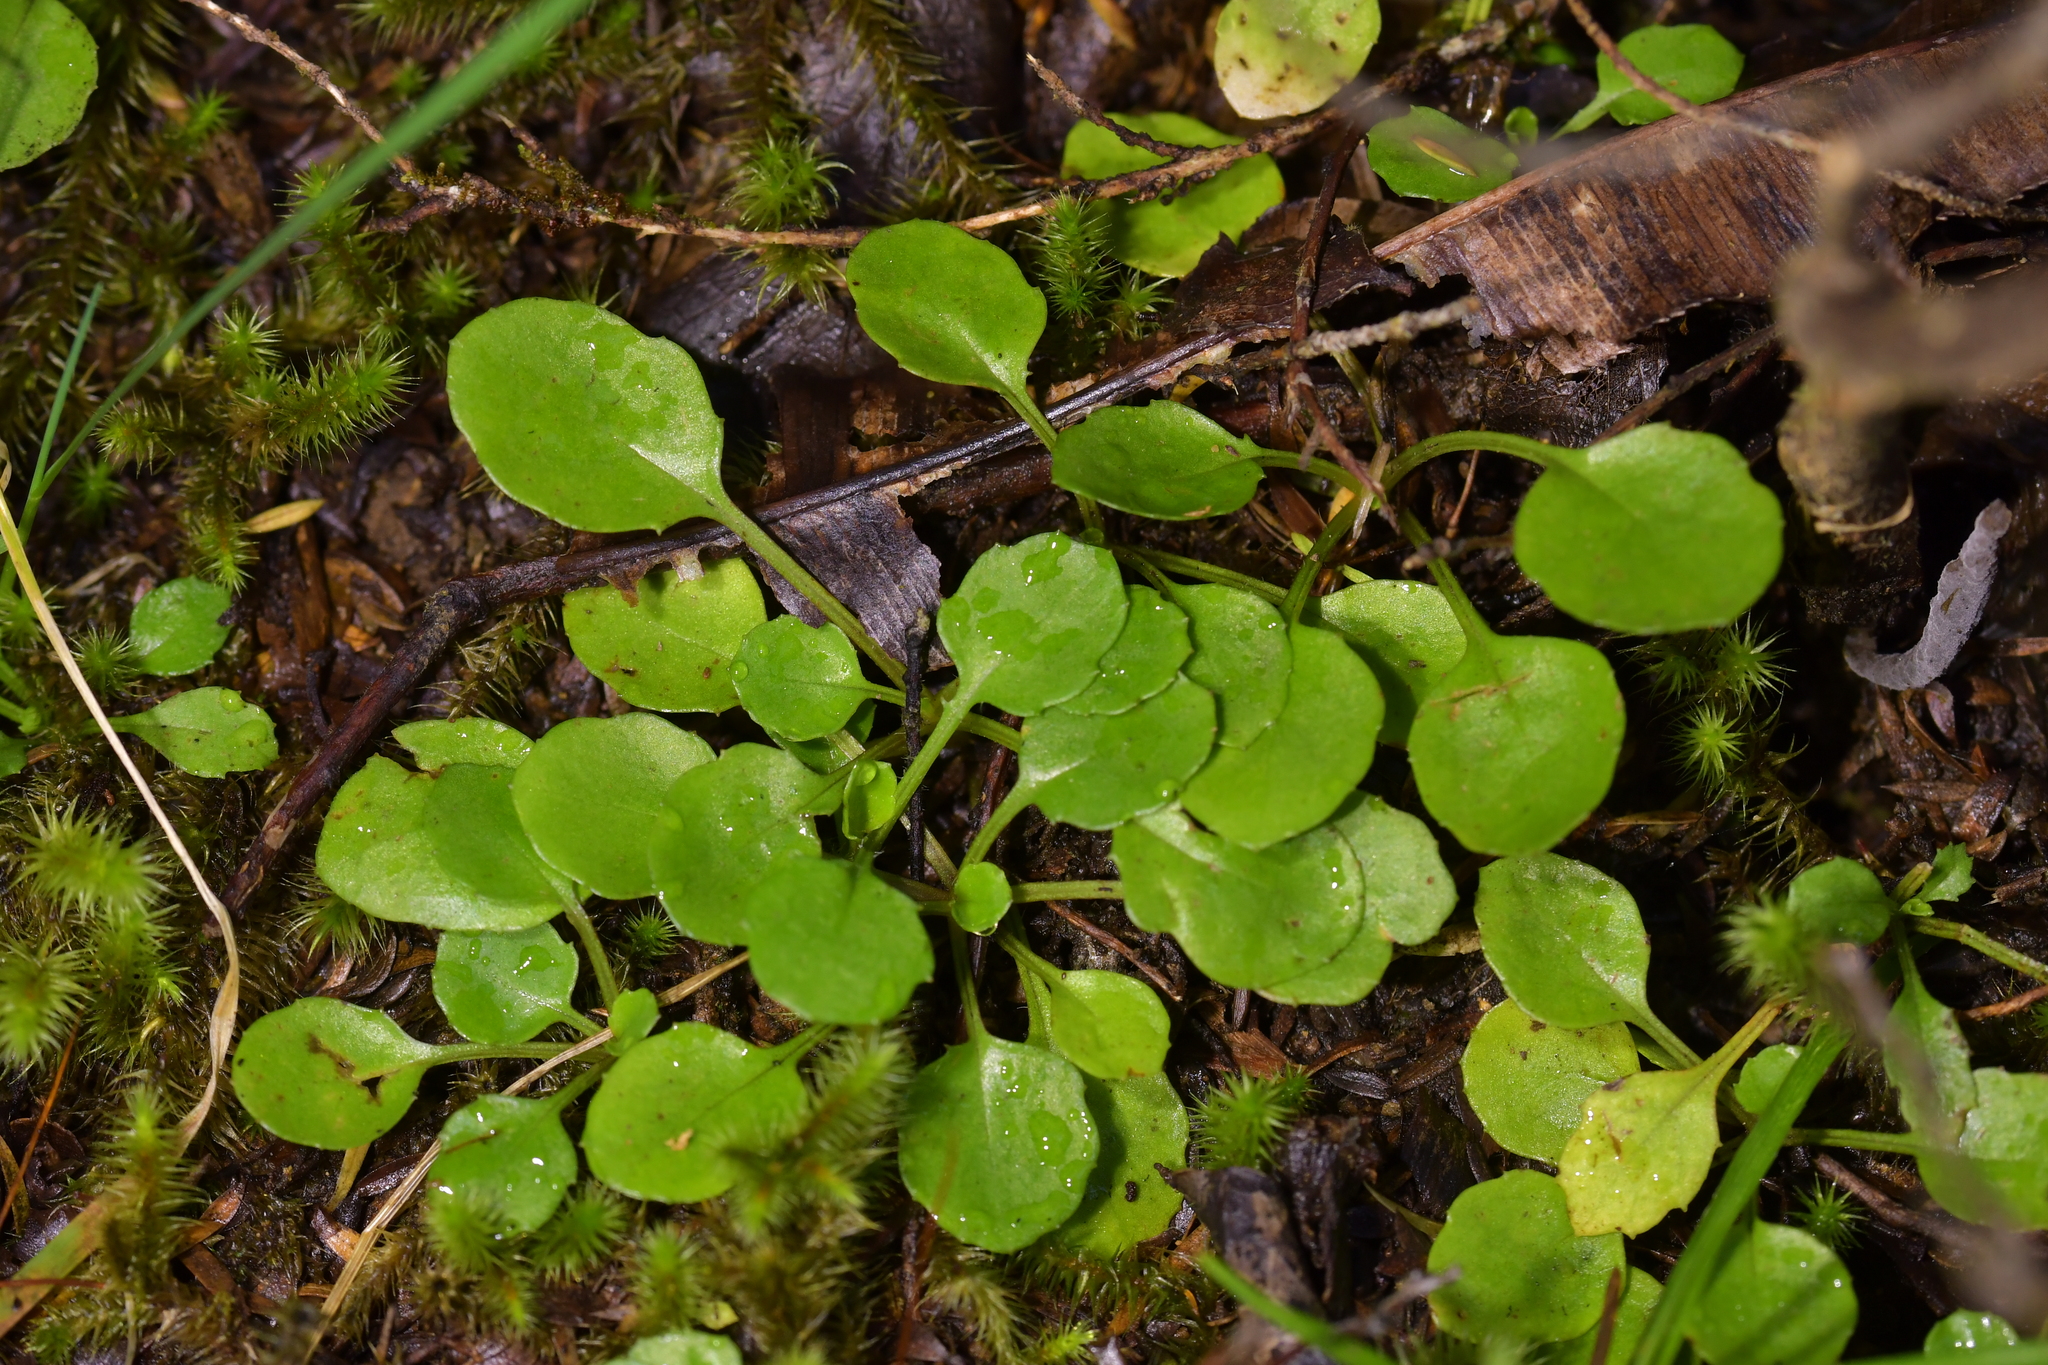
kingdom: Plantae
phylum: Tracheophyta
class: Magnoliopsida
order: Asterales
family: Asteraceae
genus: Lagenophora
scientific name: Lagenophora pumila
